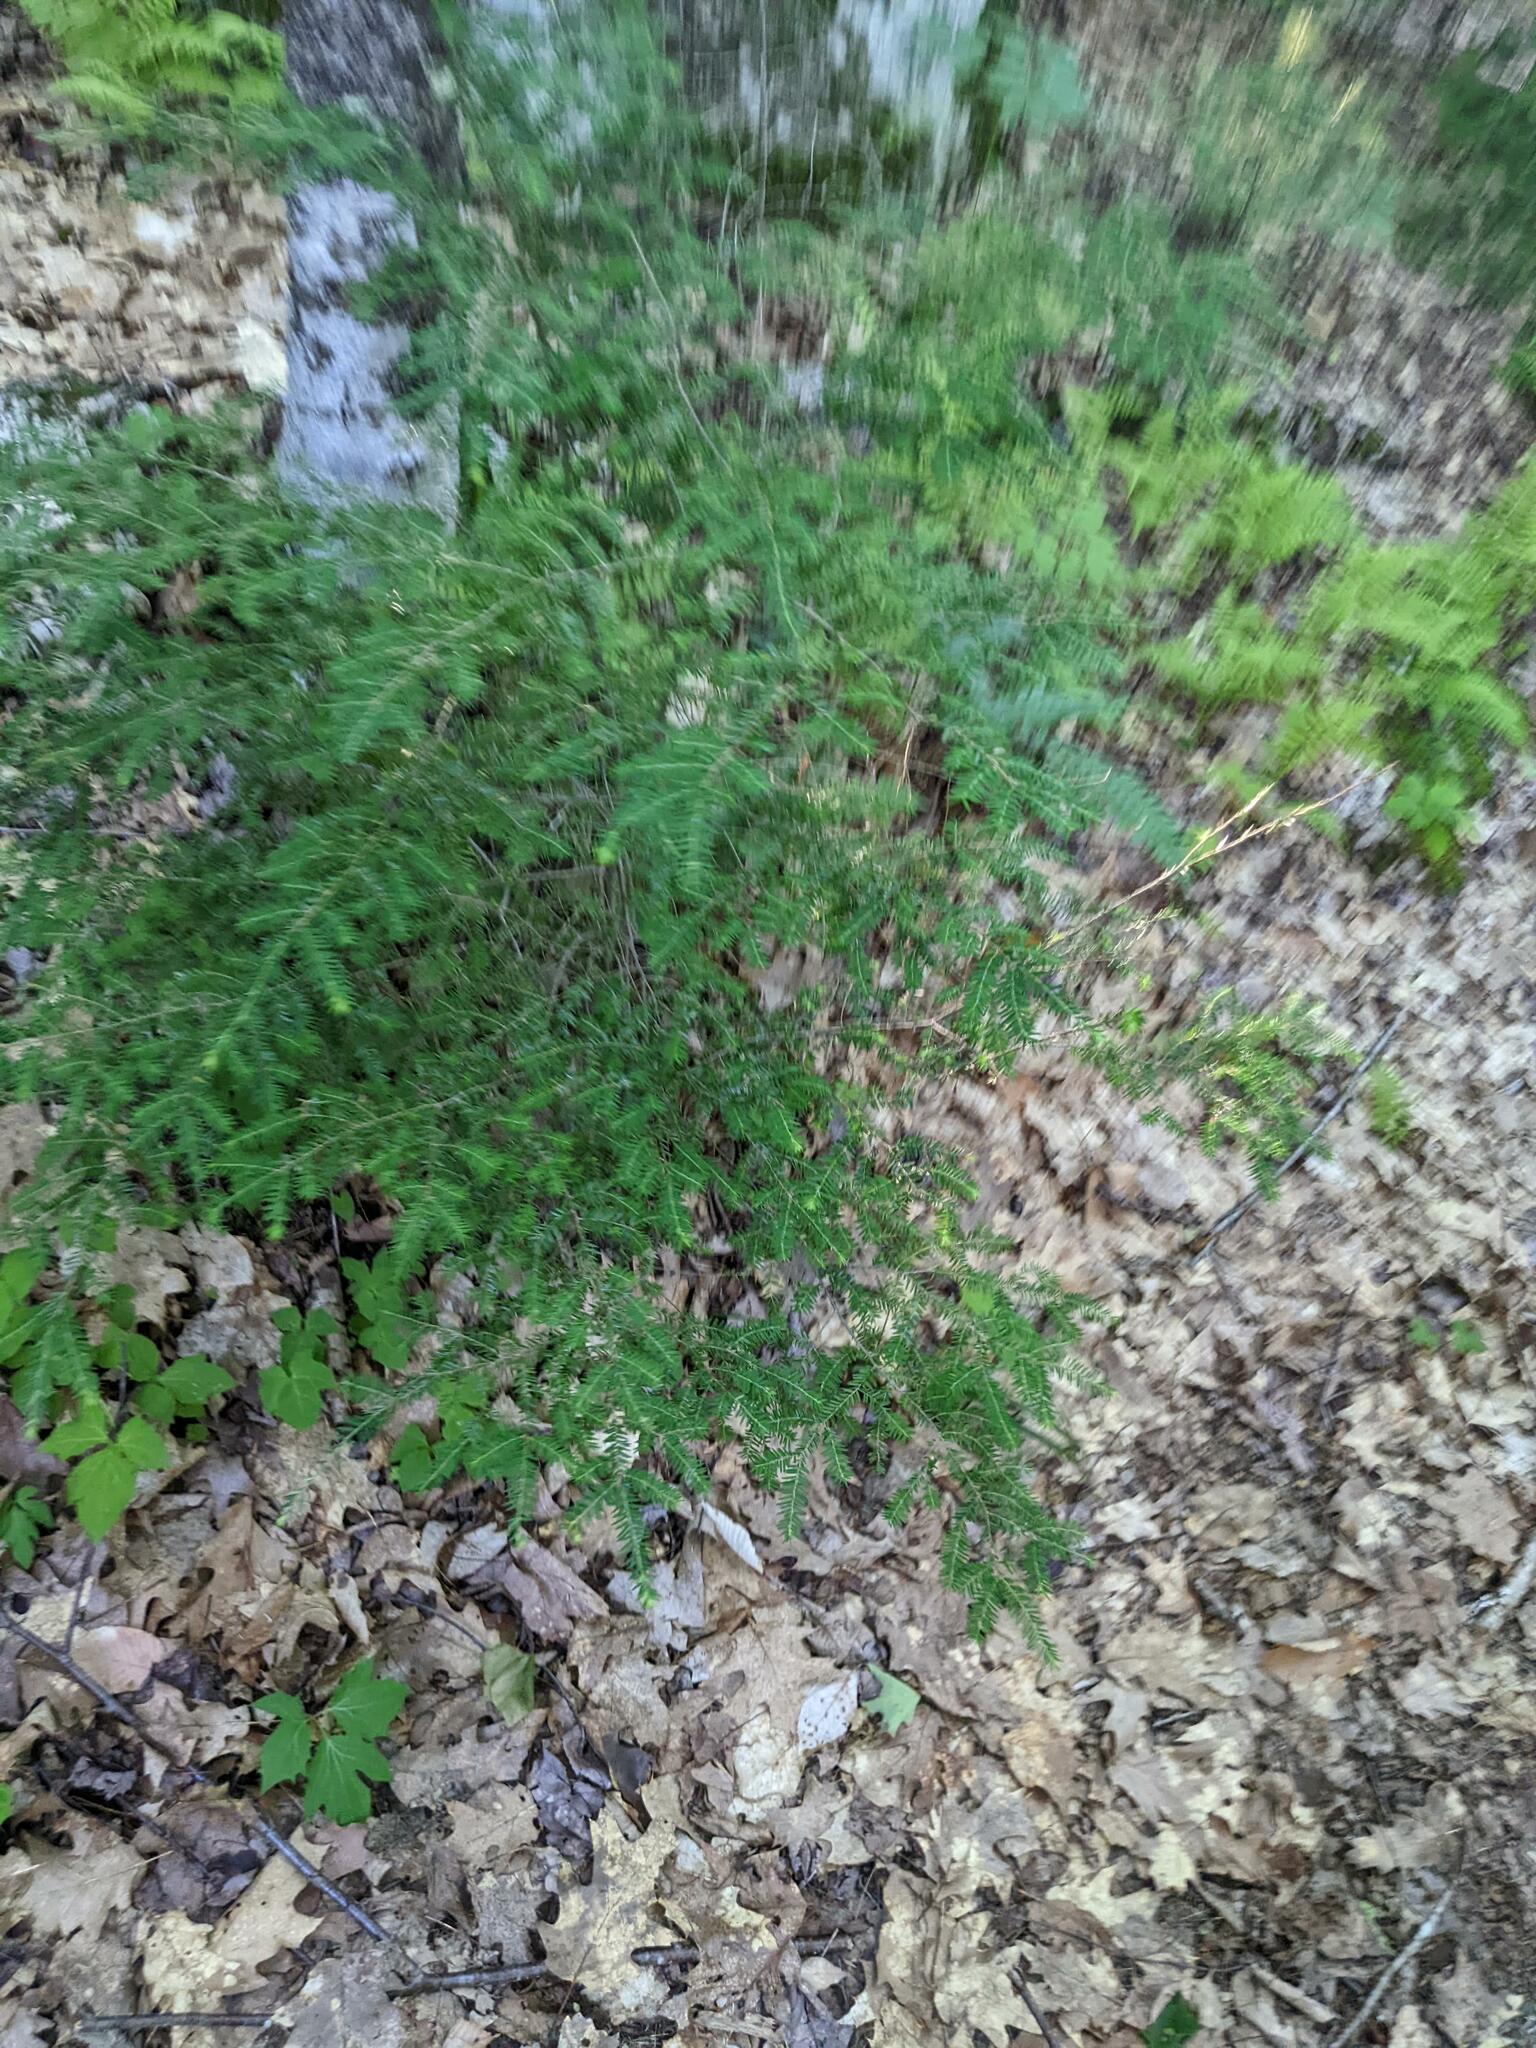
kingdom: Plantae
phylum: Tracheophyta
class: Pinopsida
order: Pinales
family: Pinaceae
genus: Tsuga
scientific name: Tsuga canadensis
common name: Eastern hemlock
